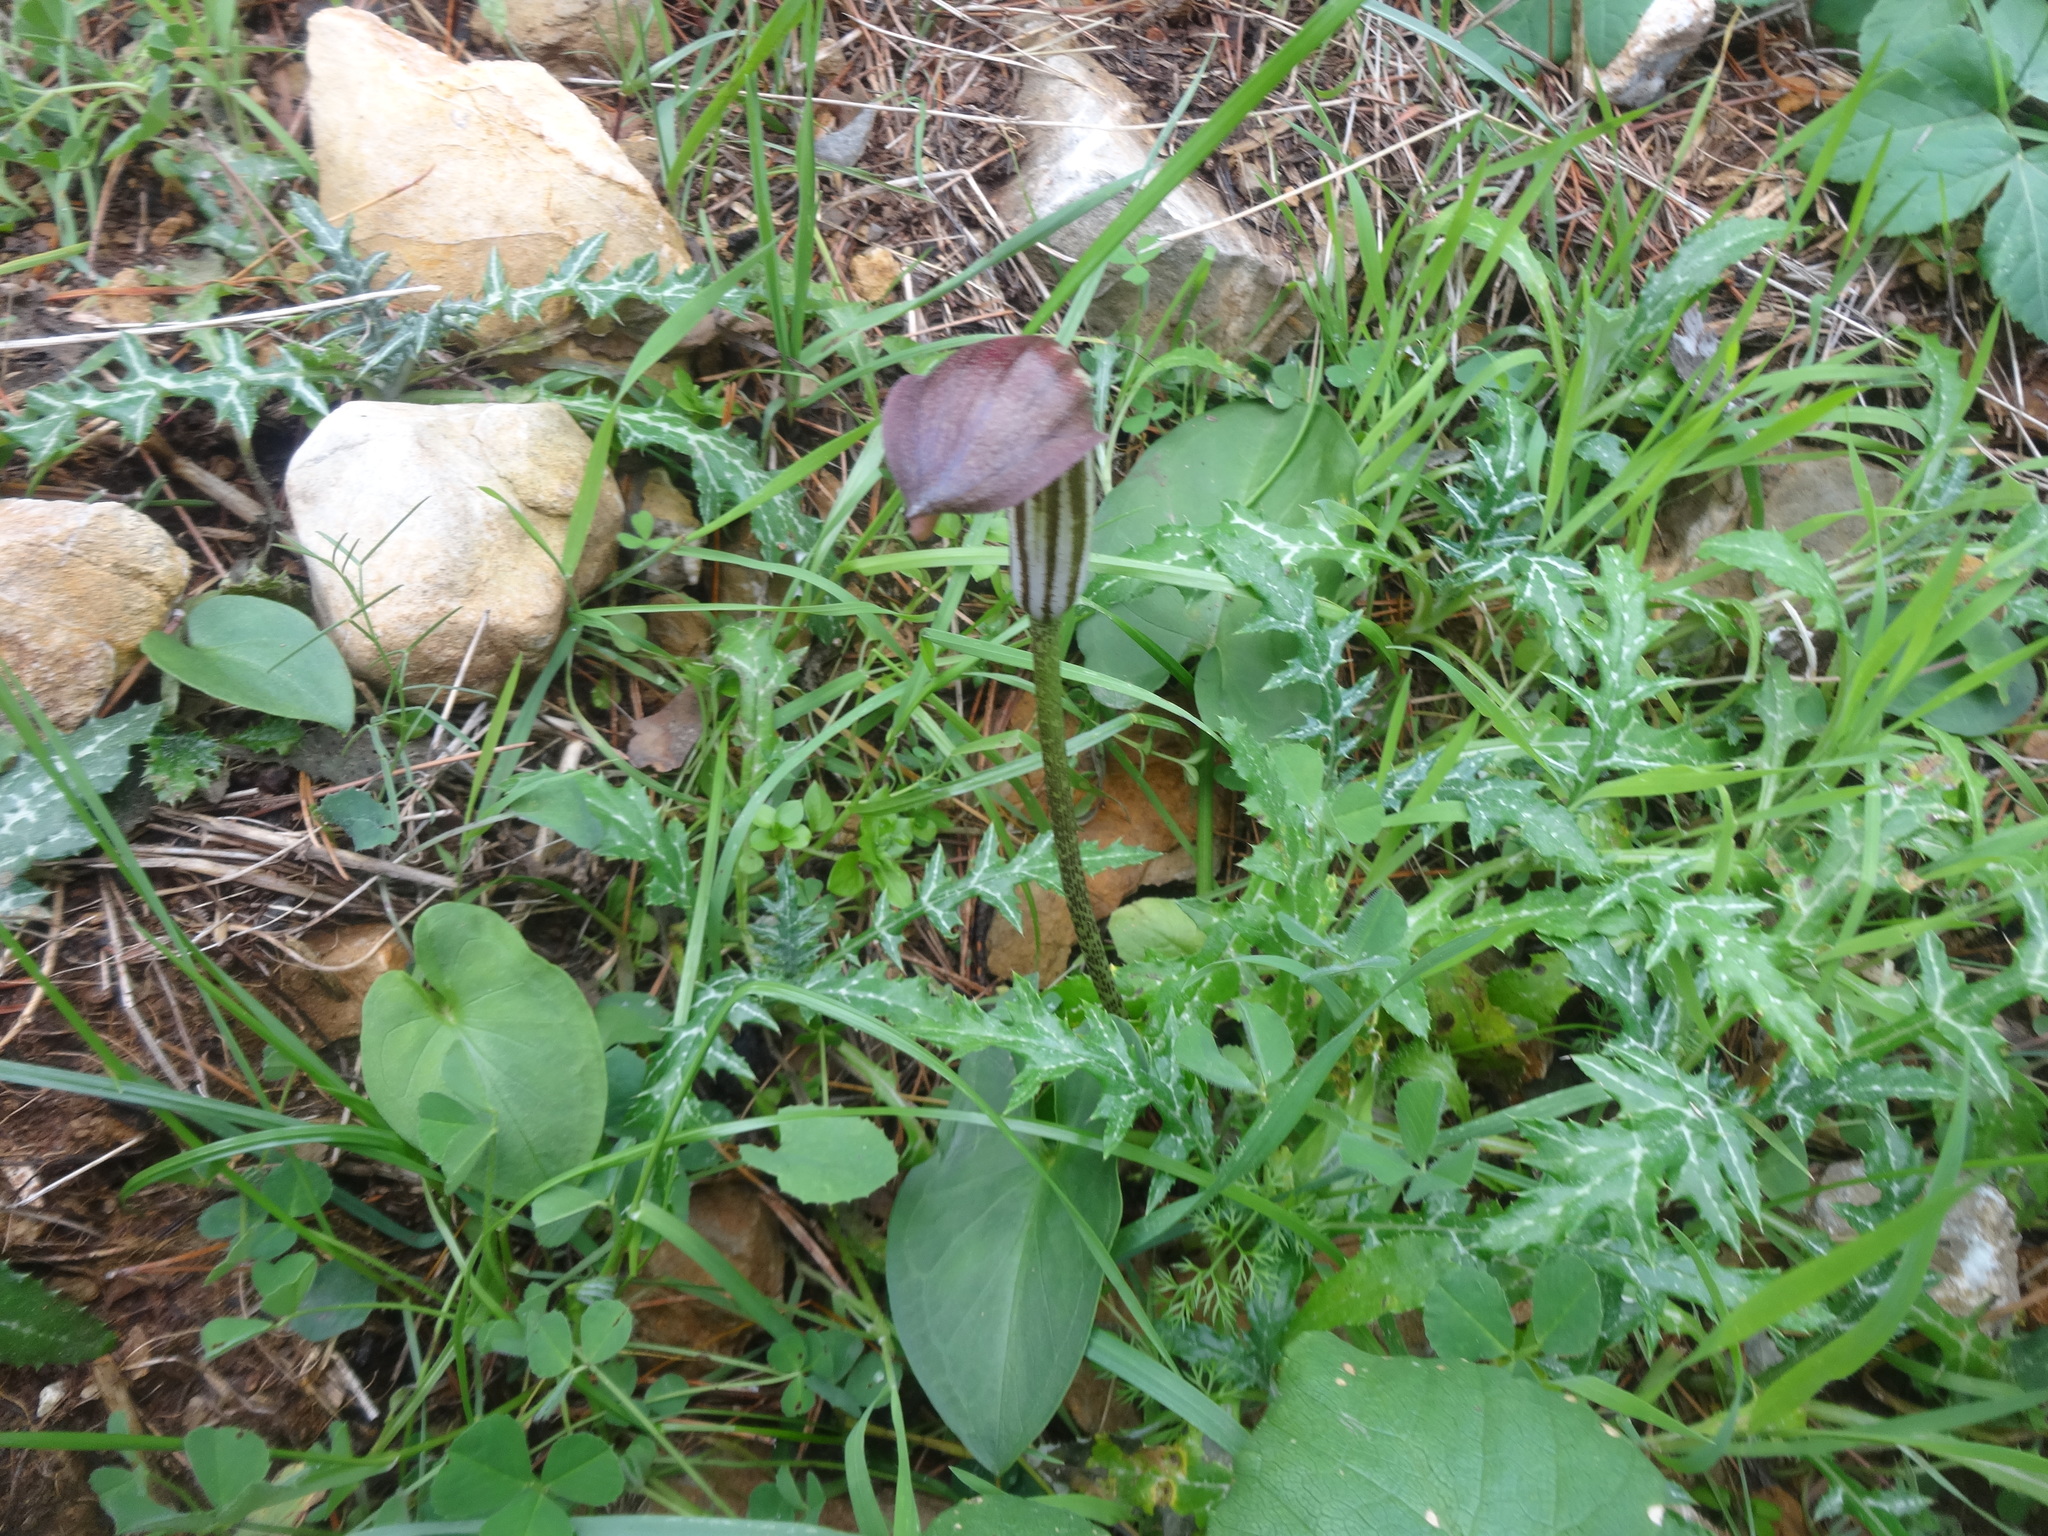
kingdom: Plantae
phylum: Tracheophyta
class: Liliopsida
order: Alismatales
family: Araceae
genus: Arisarum
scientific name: Arisarum vulgare
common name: Common arisarum
